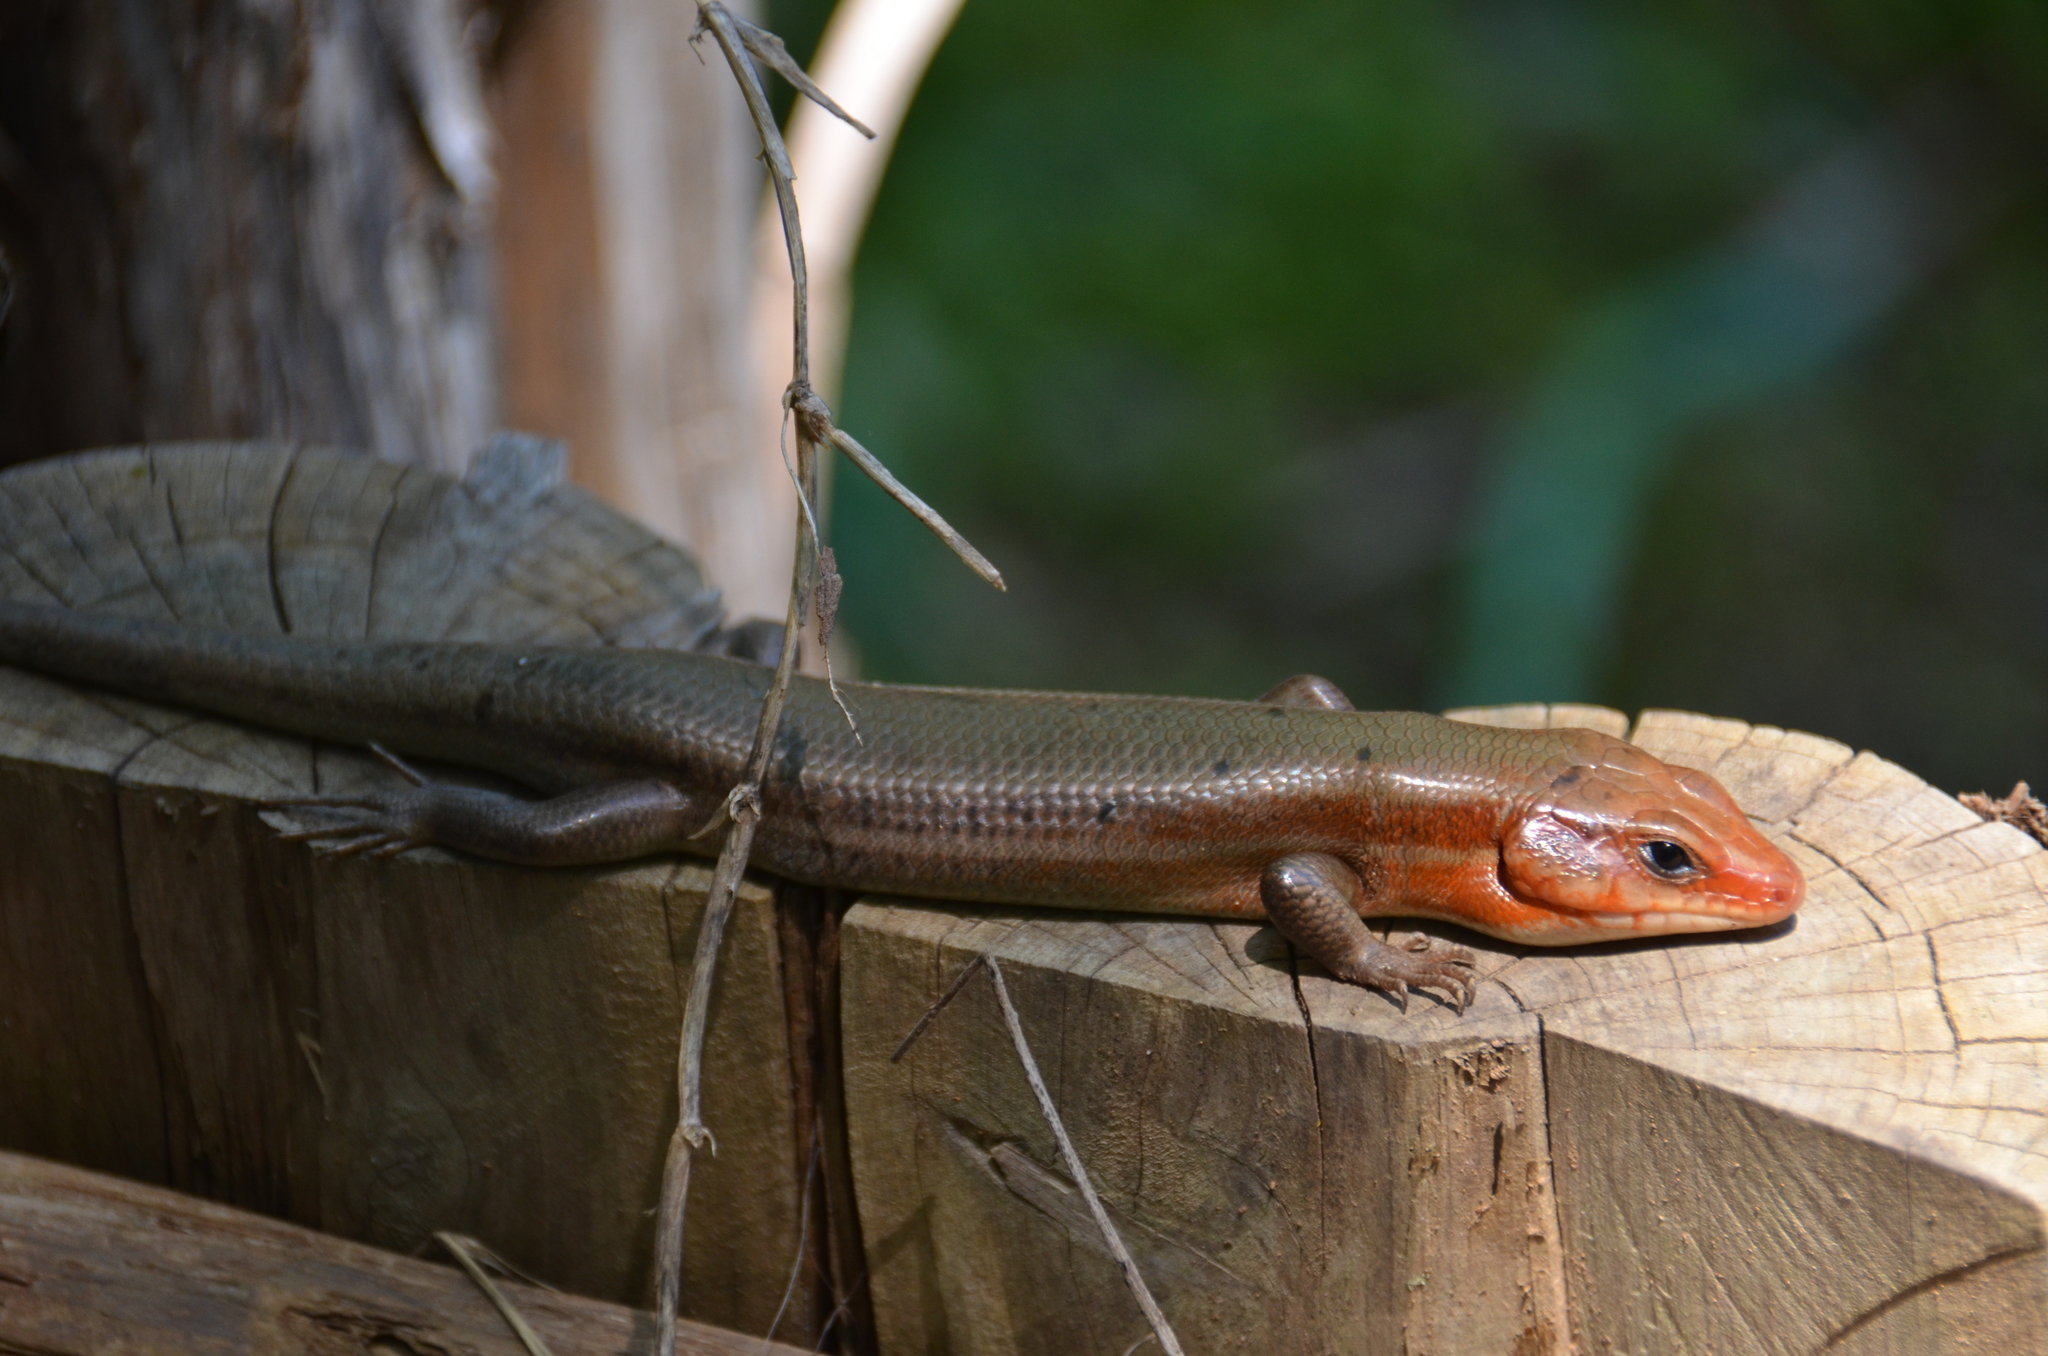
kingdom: Animalia
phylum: Chordata
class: Squamata
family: Scincidae
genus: Plestiodon
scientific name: Plestiodon laticeps
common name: Broadhead skink
